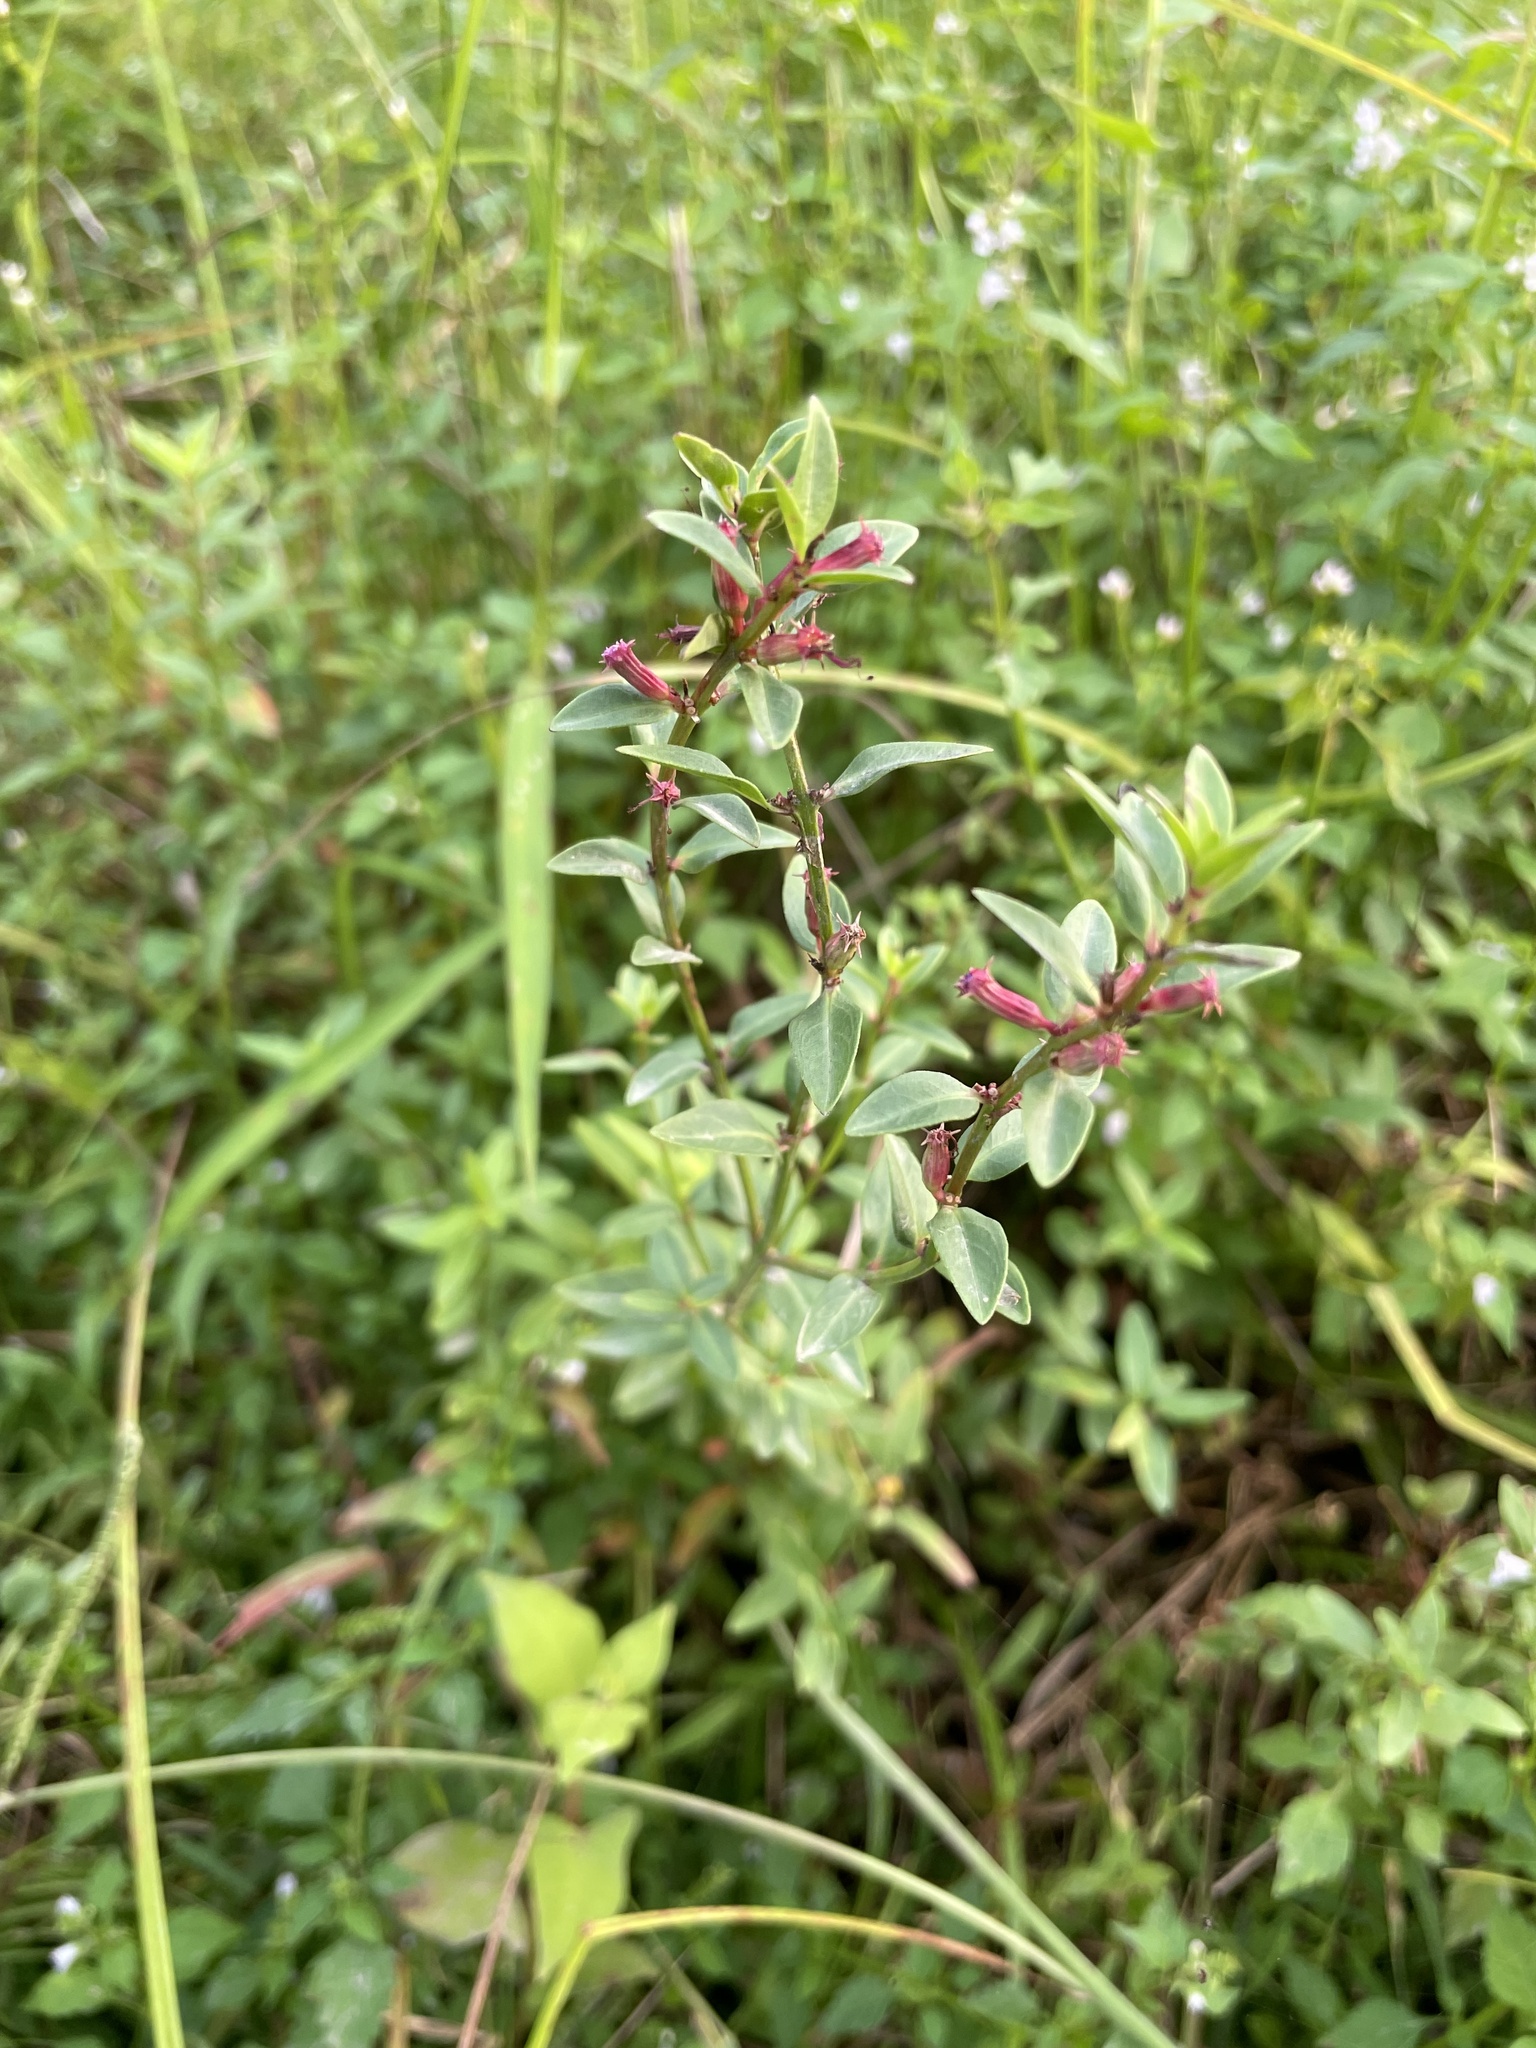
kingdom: Plantae
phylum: Tracheophyta
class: Magnoliopsida
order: Myrtales
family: Lythraceae
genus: Lythrum
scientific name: Lythrum salicaria
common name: Purple loosestrife
